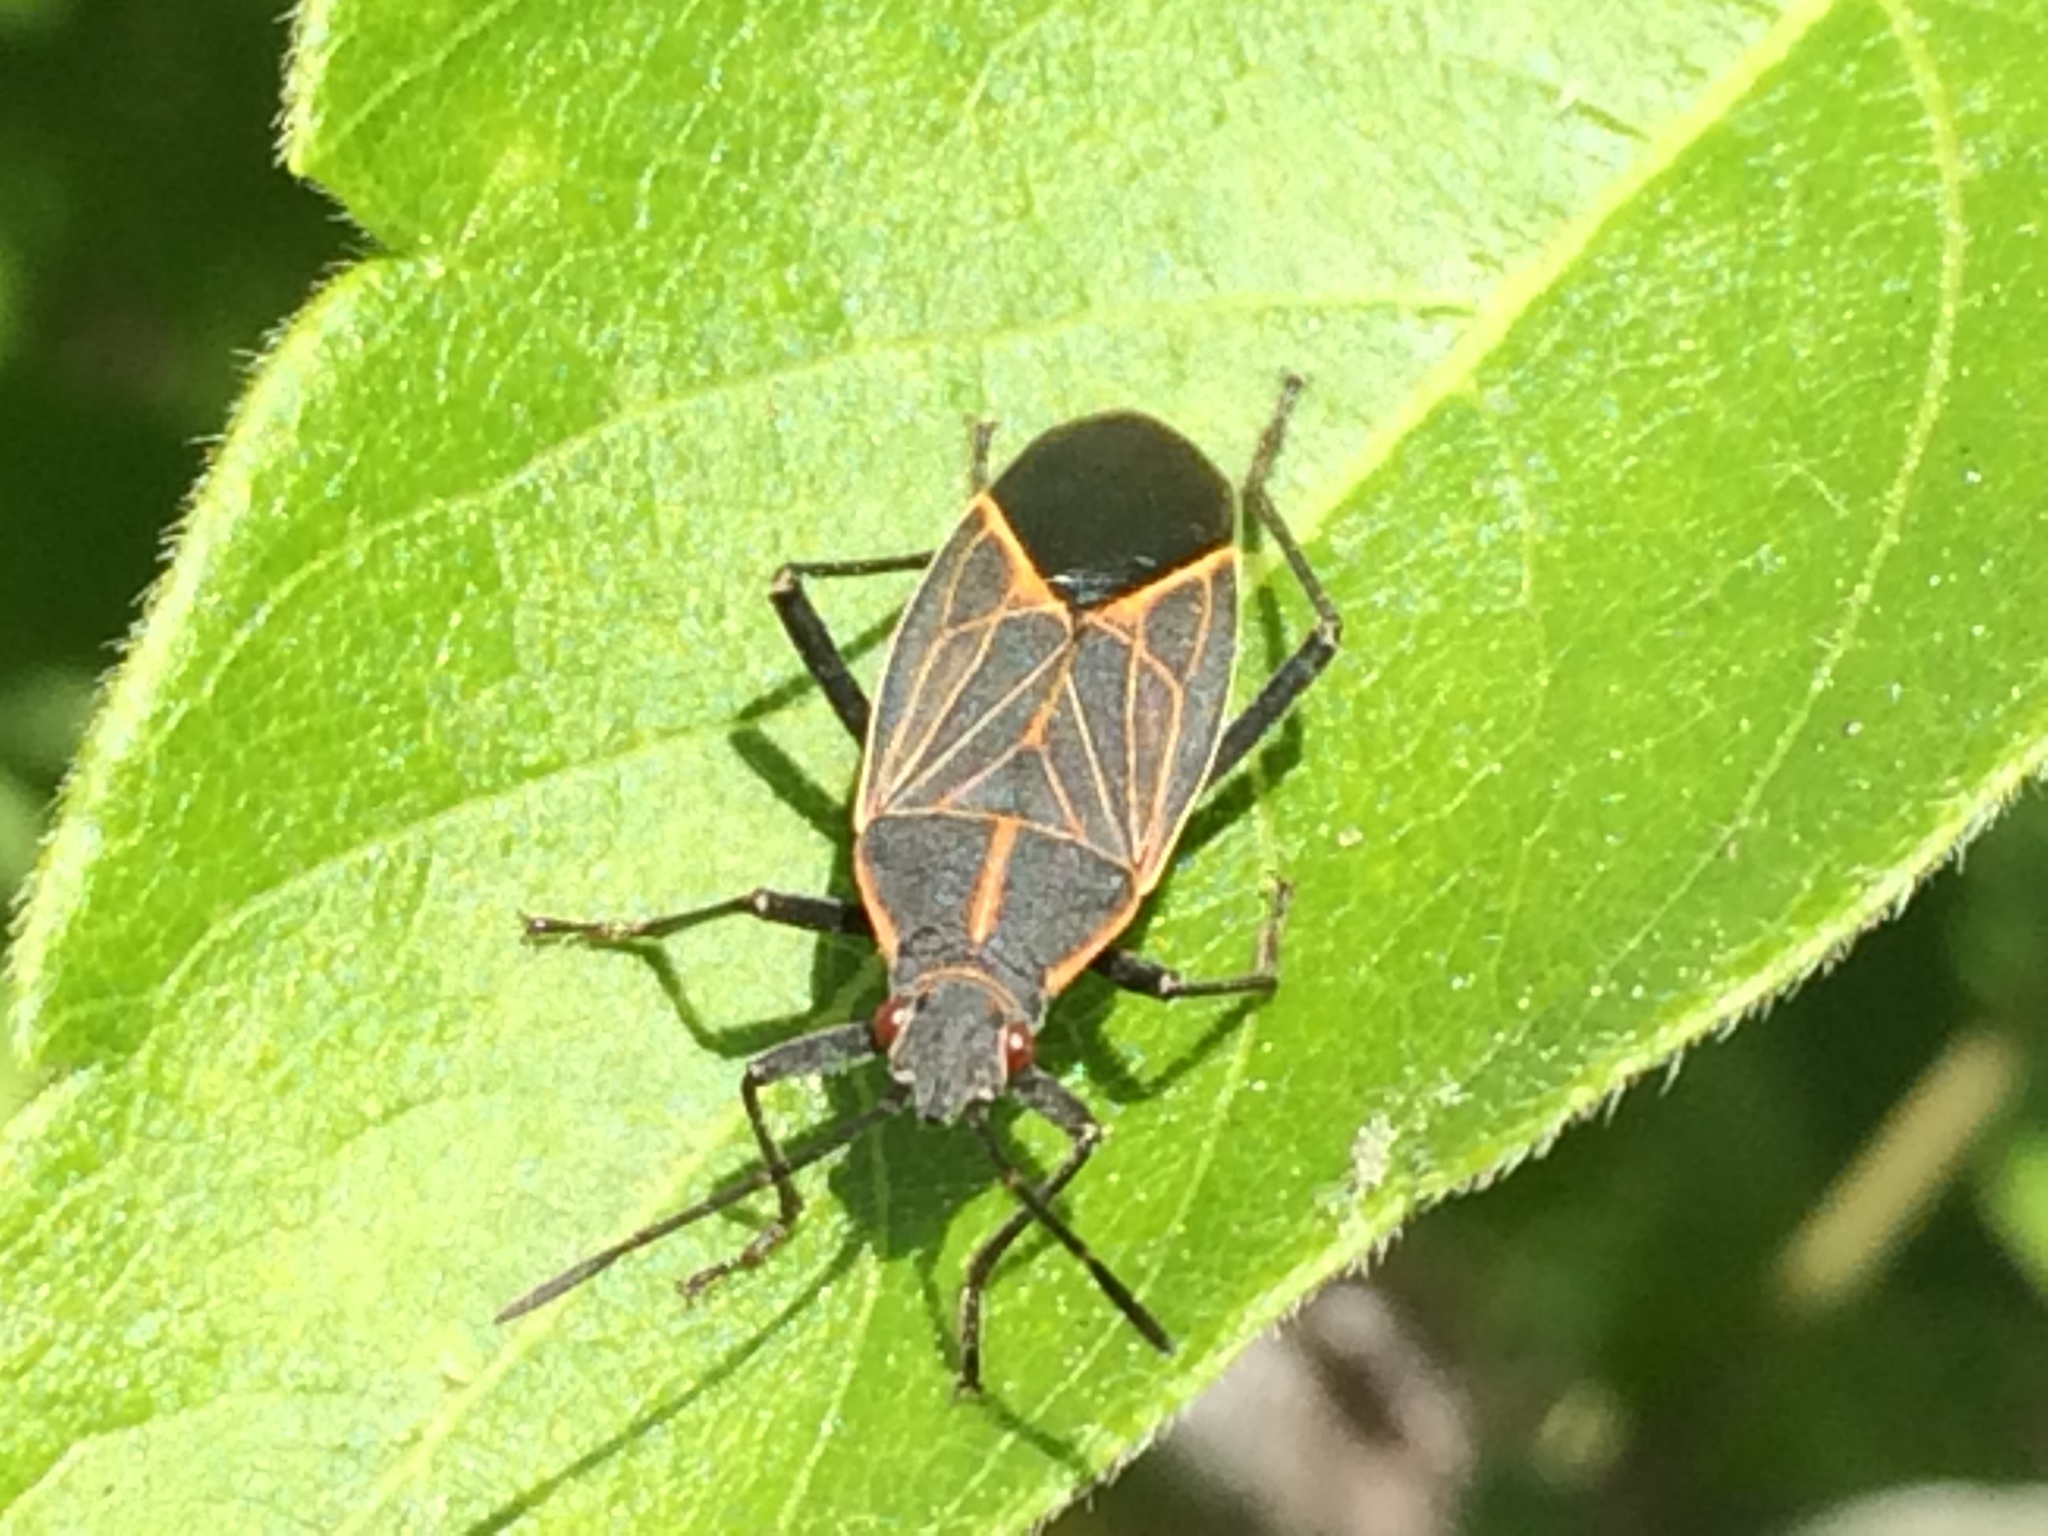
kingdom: Animalia
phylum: Arthropoda
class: Insecta
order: Hemiptera
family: Rhopalidae
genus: Boisea
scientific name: Boisea rubrolineata
